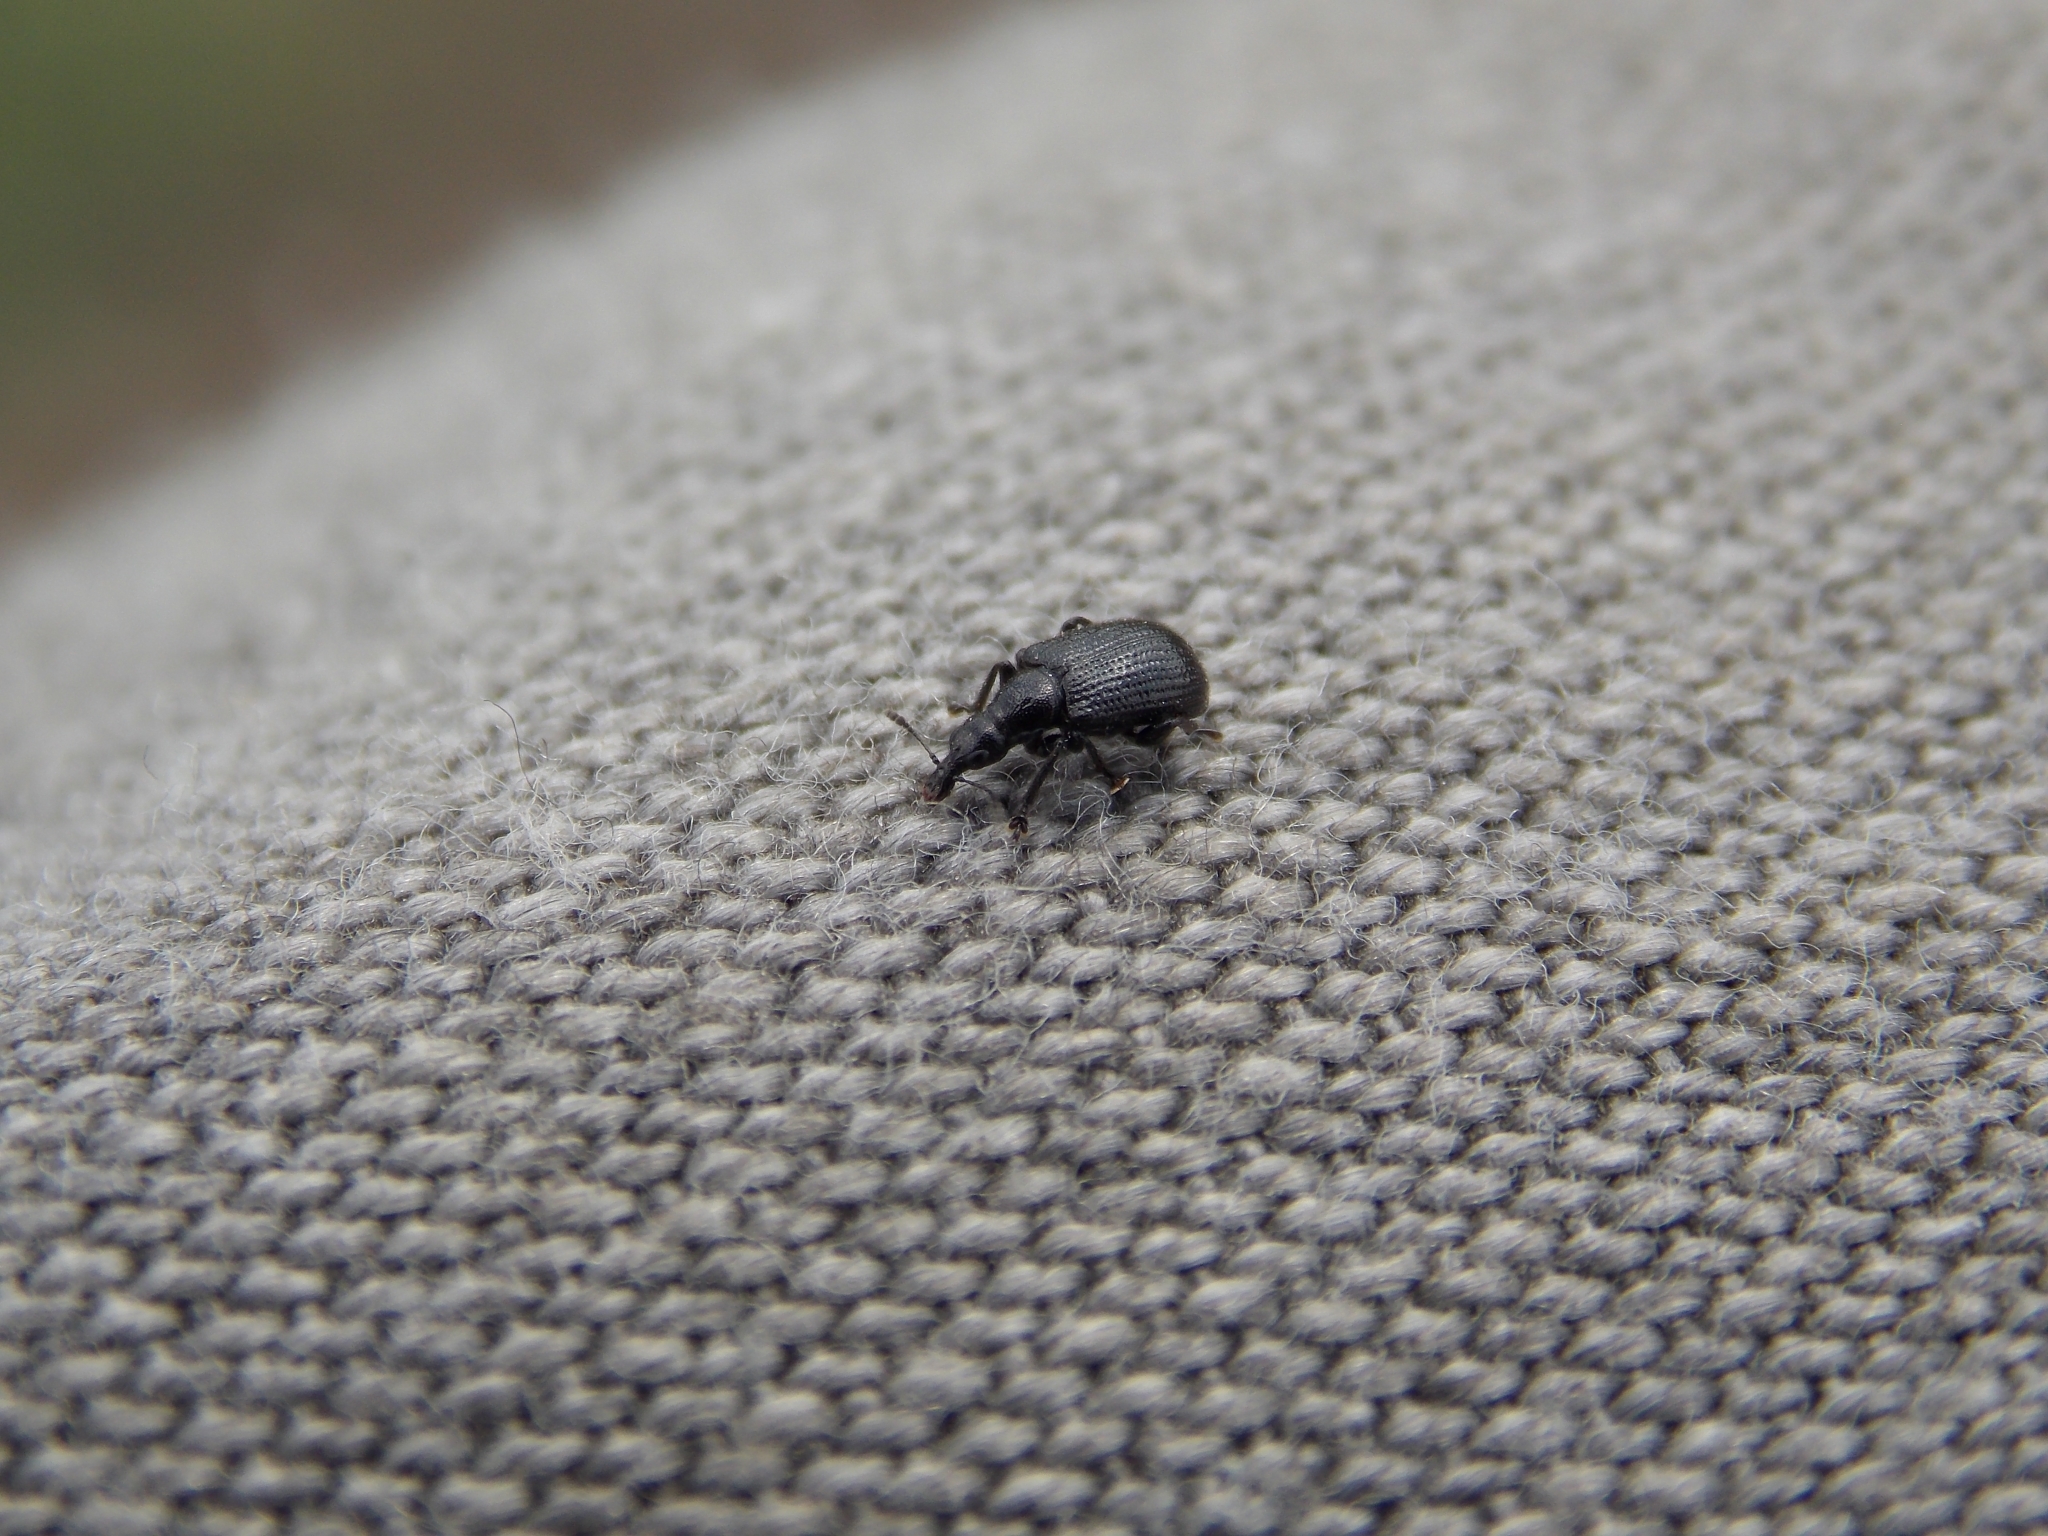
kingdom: Animalia
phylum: Arthropoda
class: Insecta
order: Coleoptera
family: Attelabidae
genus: Deporaus
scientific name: Deporaus betulae
